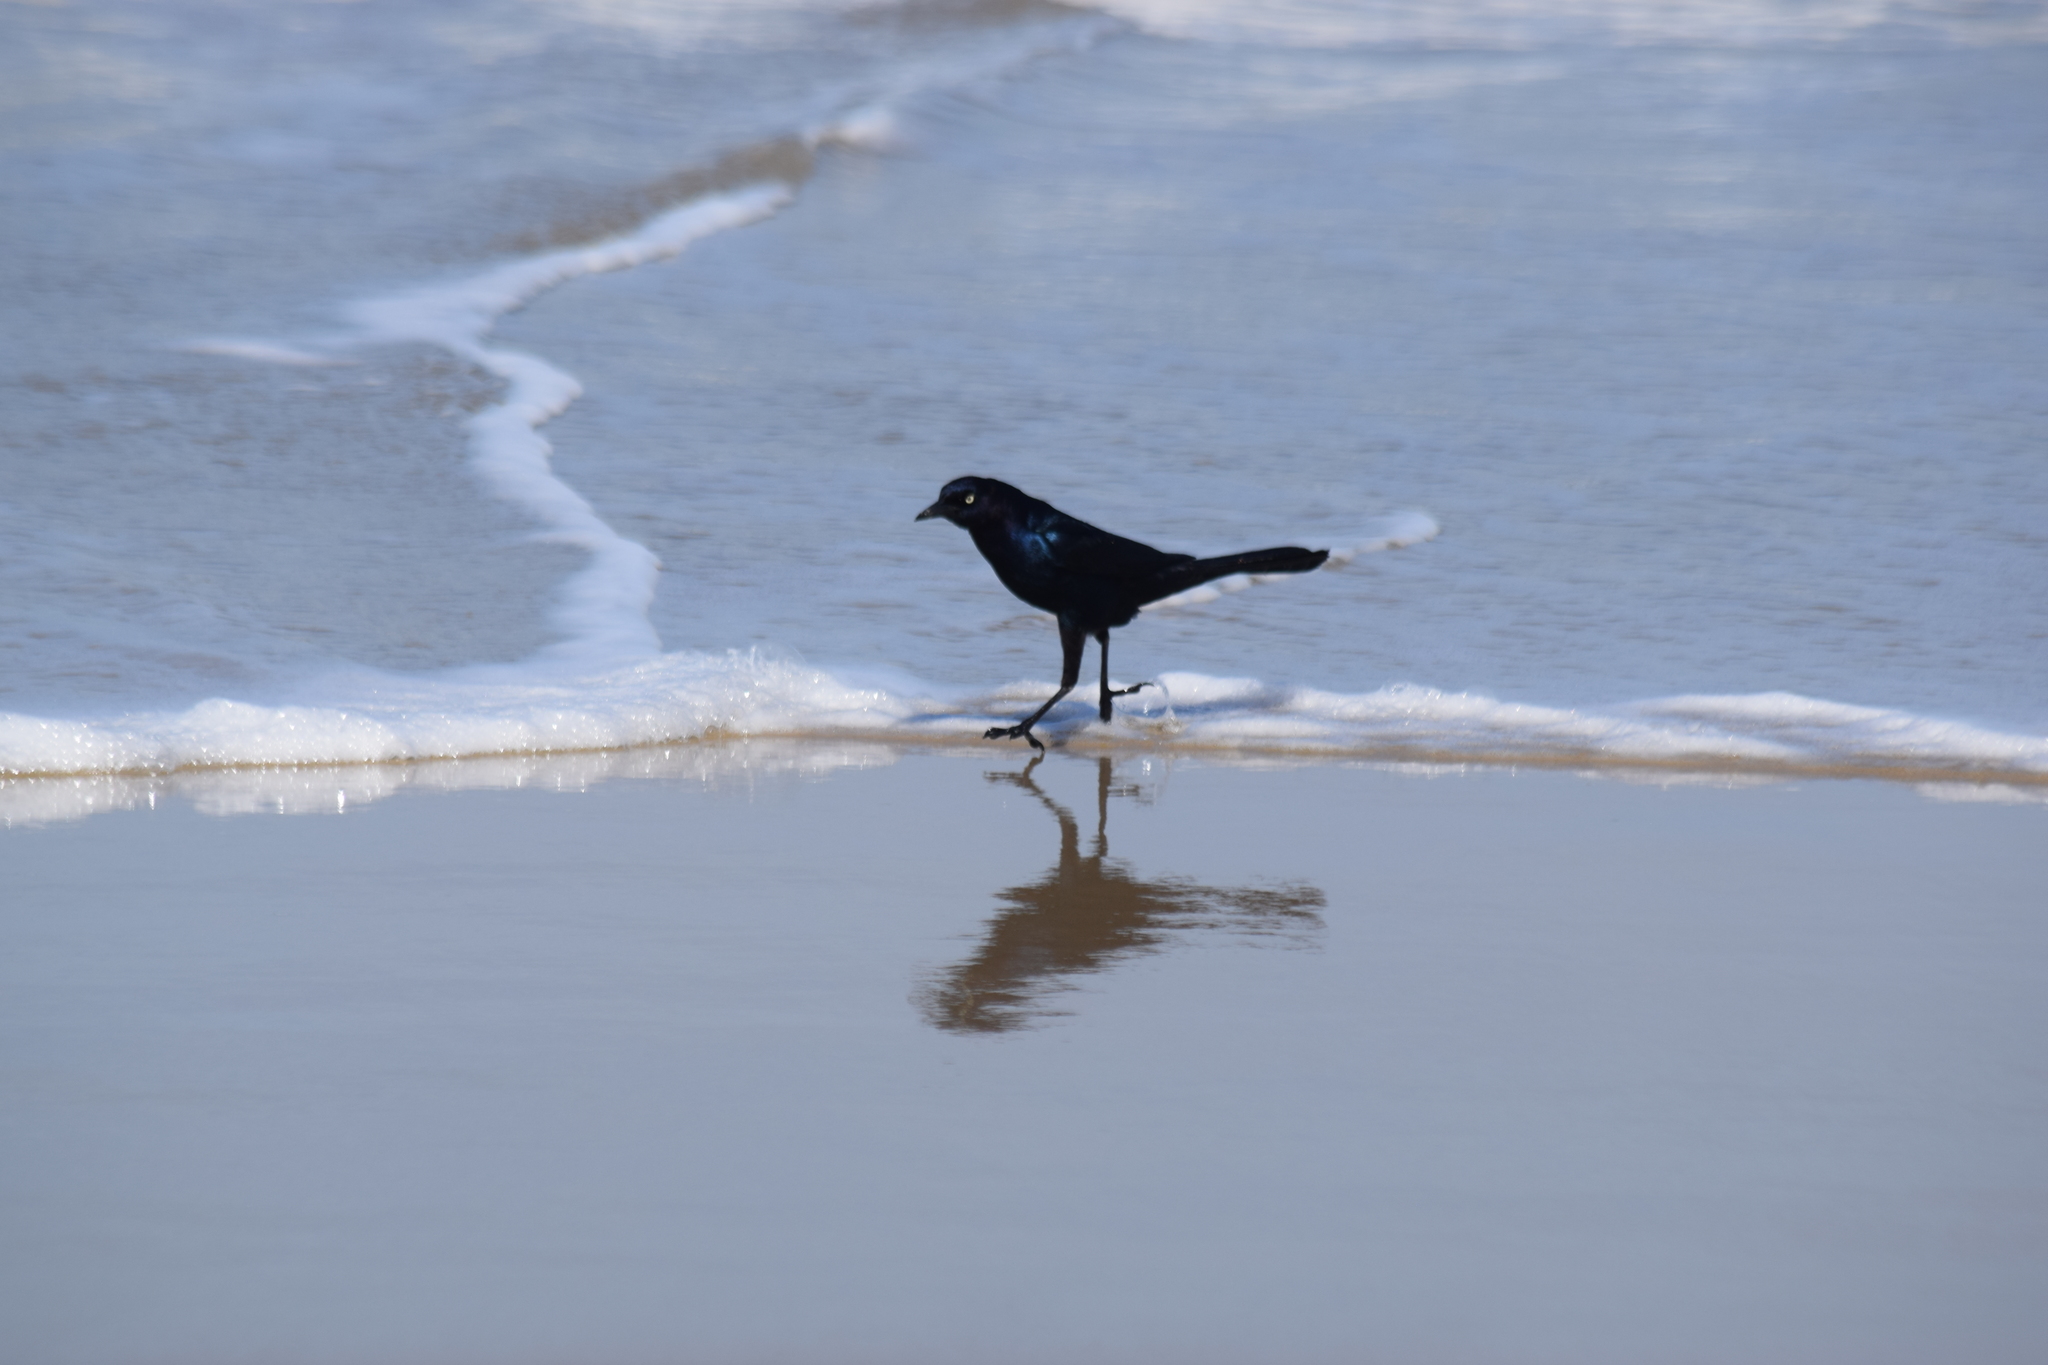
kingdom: Animalia
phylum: Chordata
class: Aves
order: Passeriformes
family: Icteridae
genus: Quiscalus
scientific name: Quiscalus major
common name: Boat-tailed grackle
